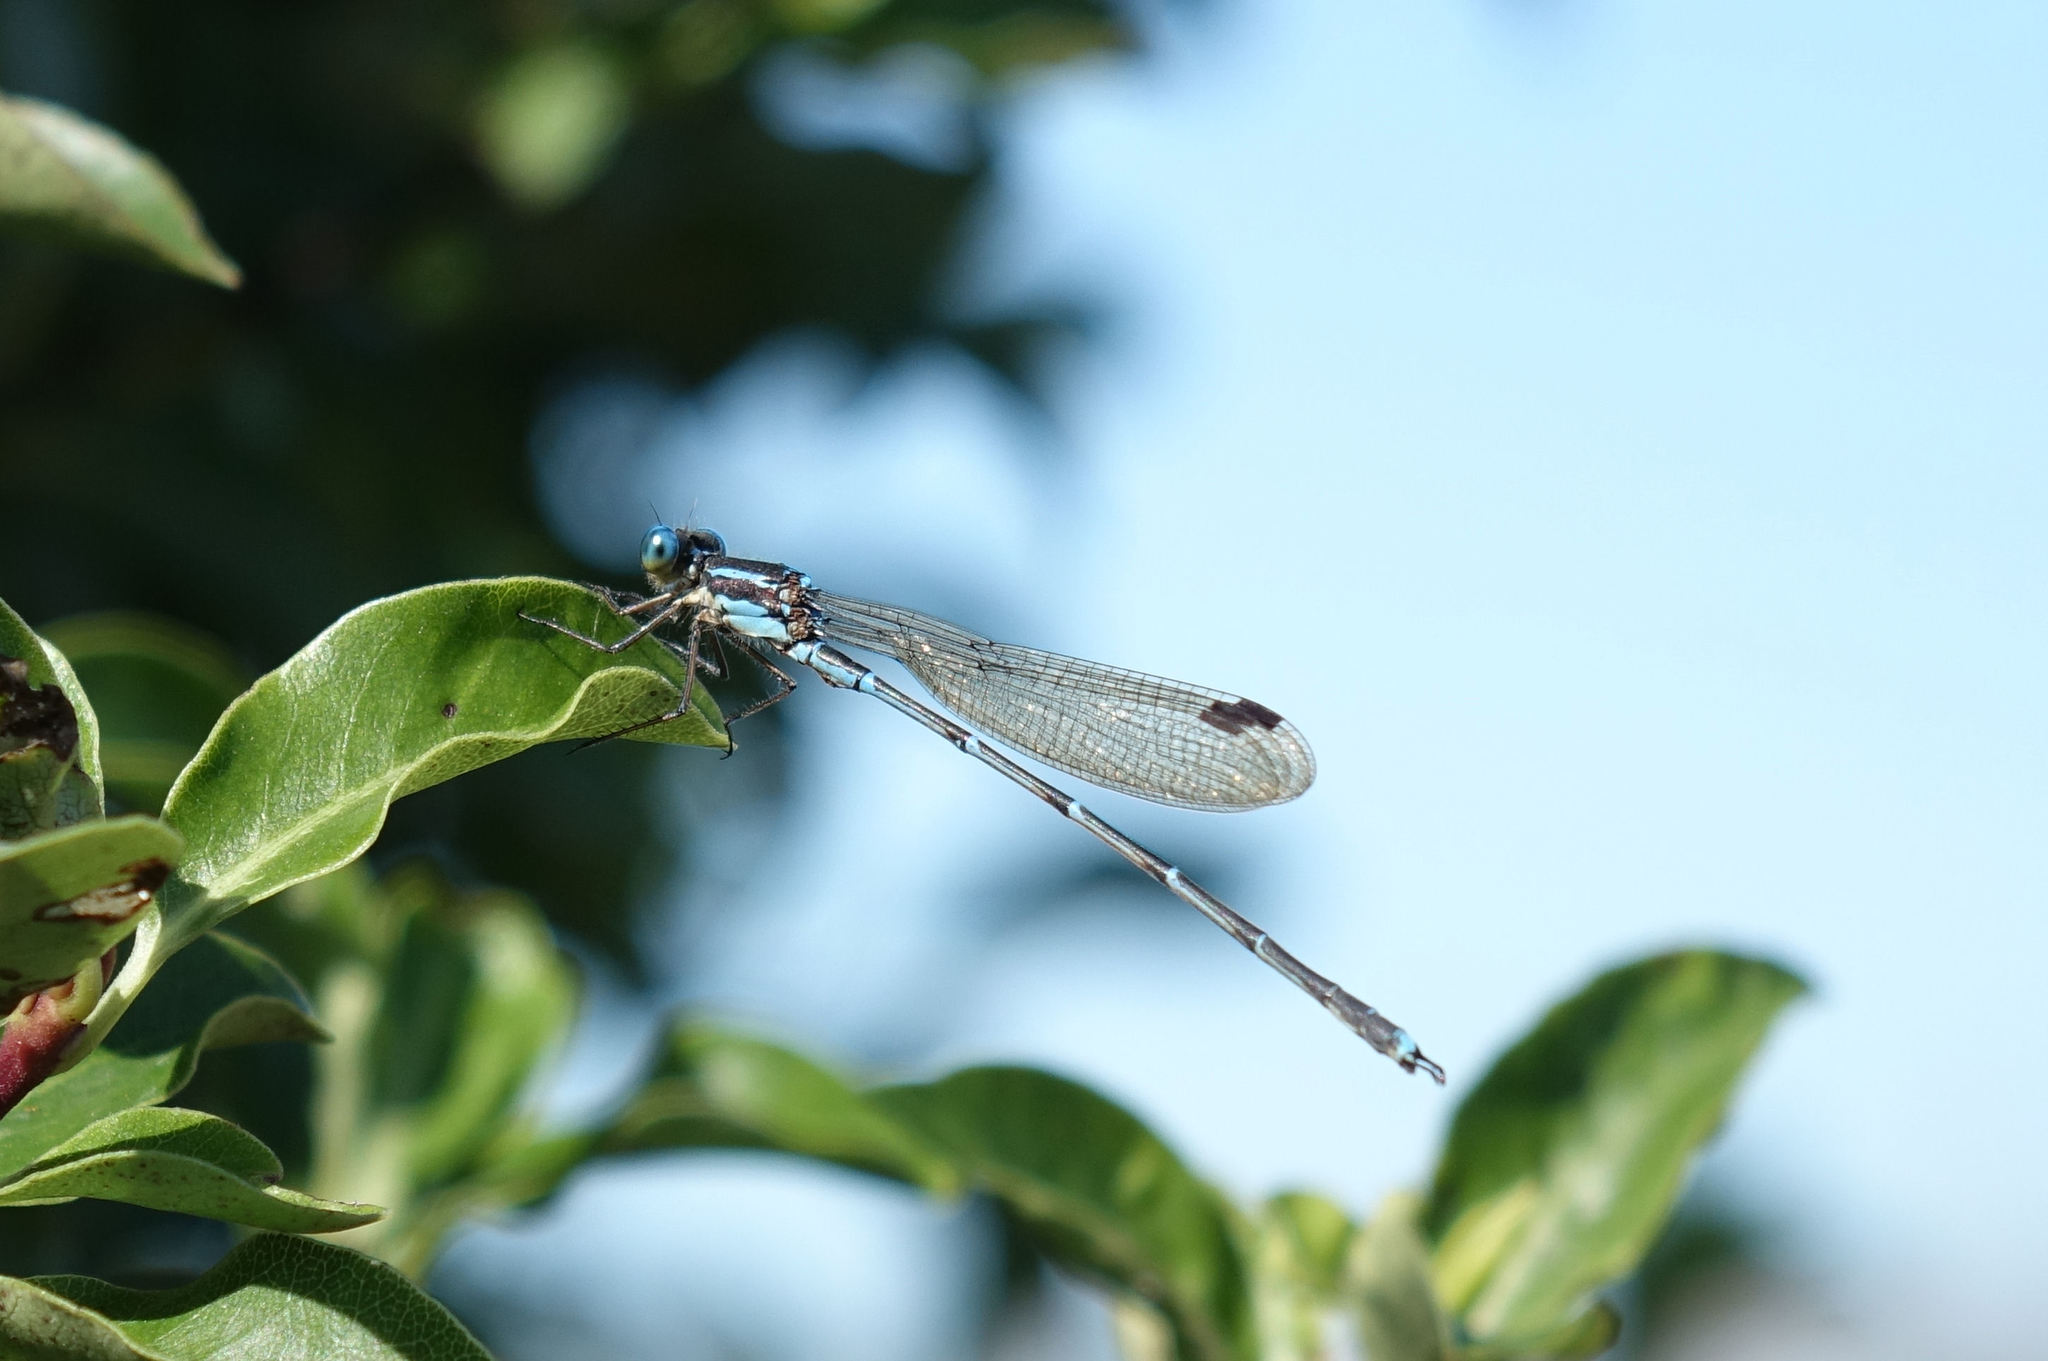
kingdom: Animalia
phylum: Arthropoda
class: Insecta
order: Odonata
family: Lestidae
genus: Austrolestes
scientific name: Austrolestes colensonis
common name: Blue damselfly
